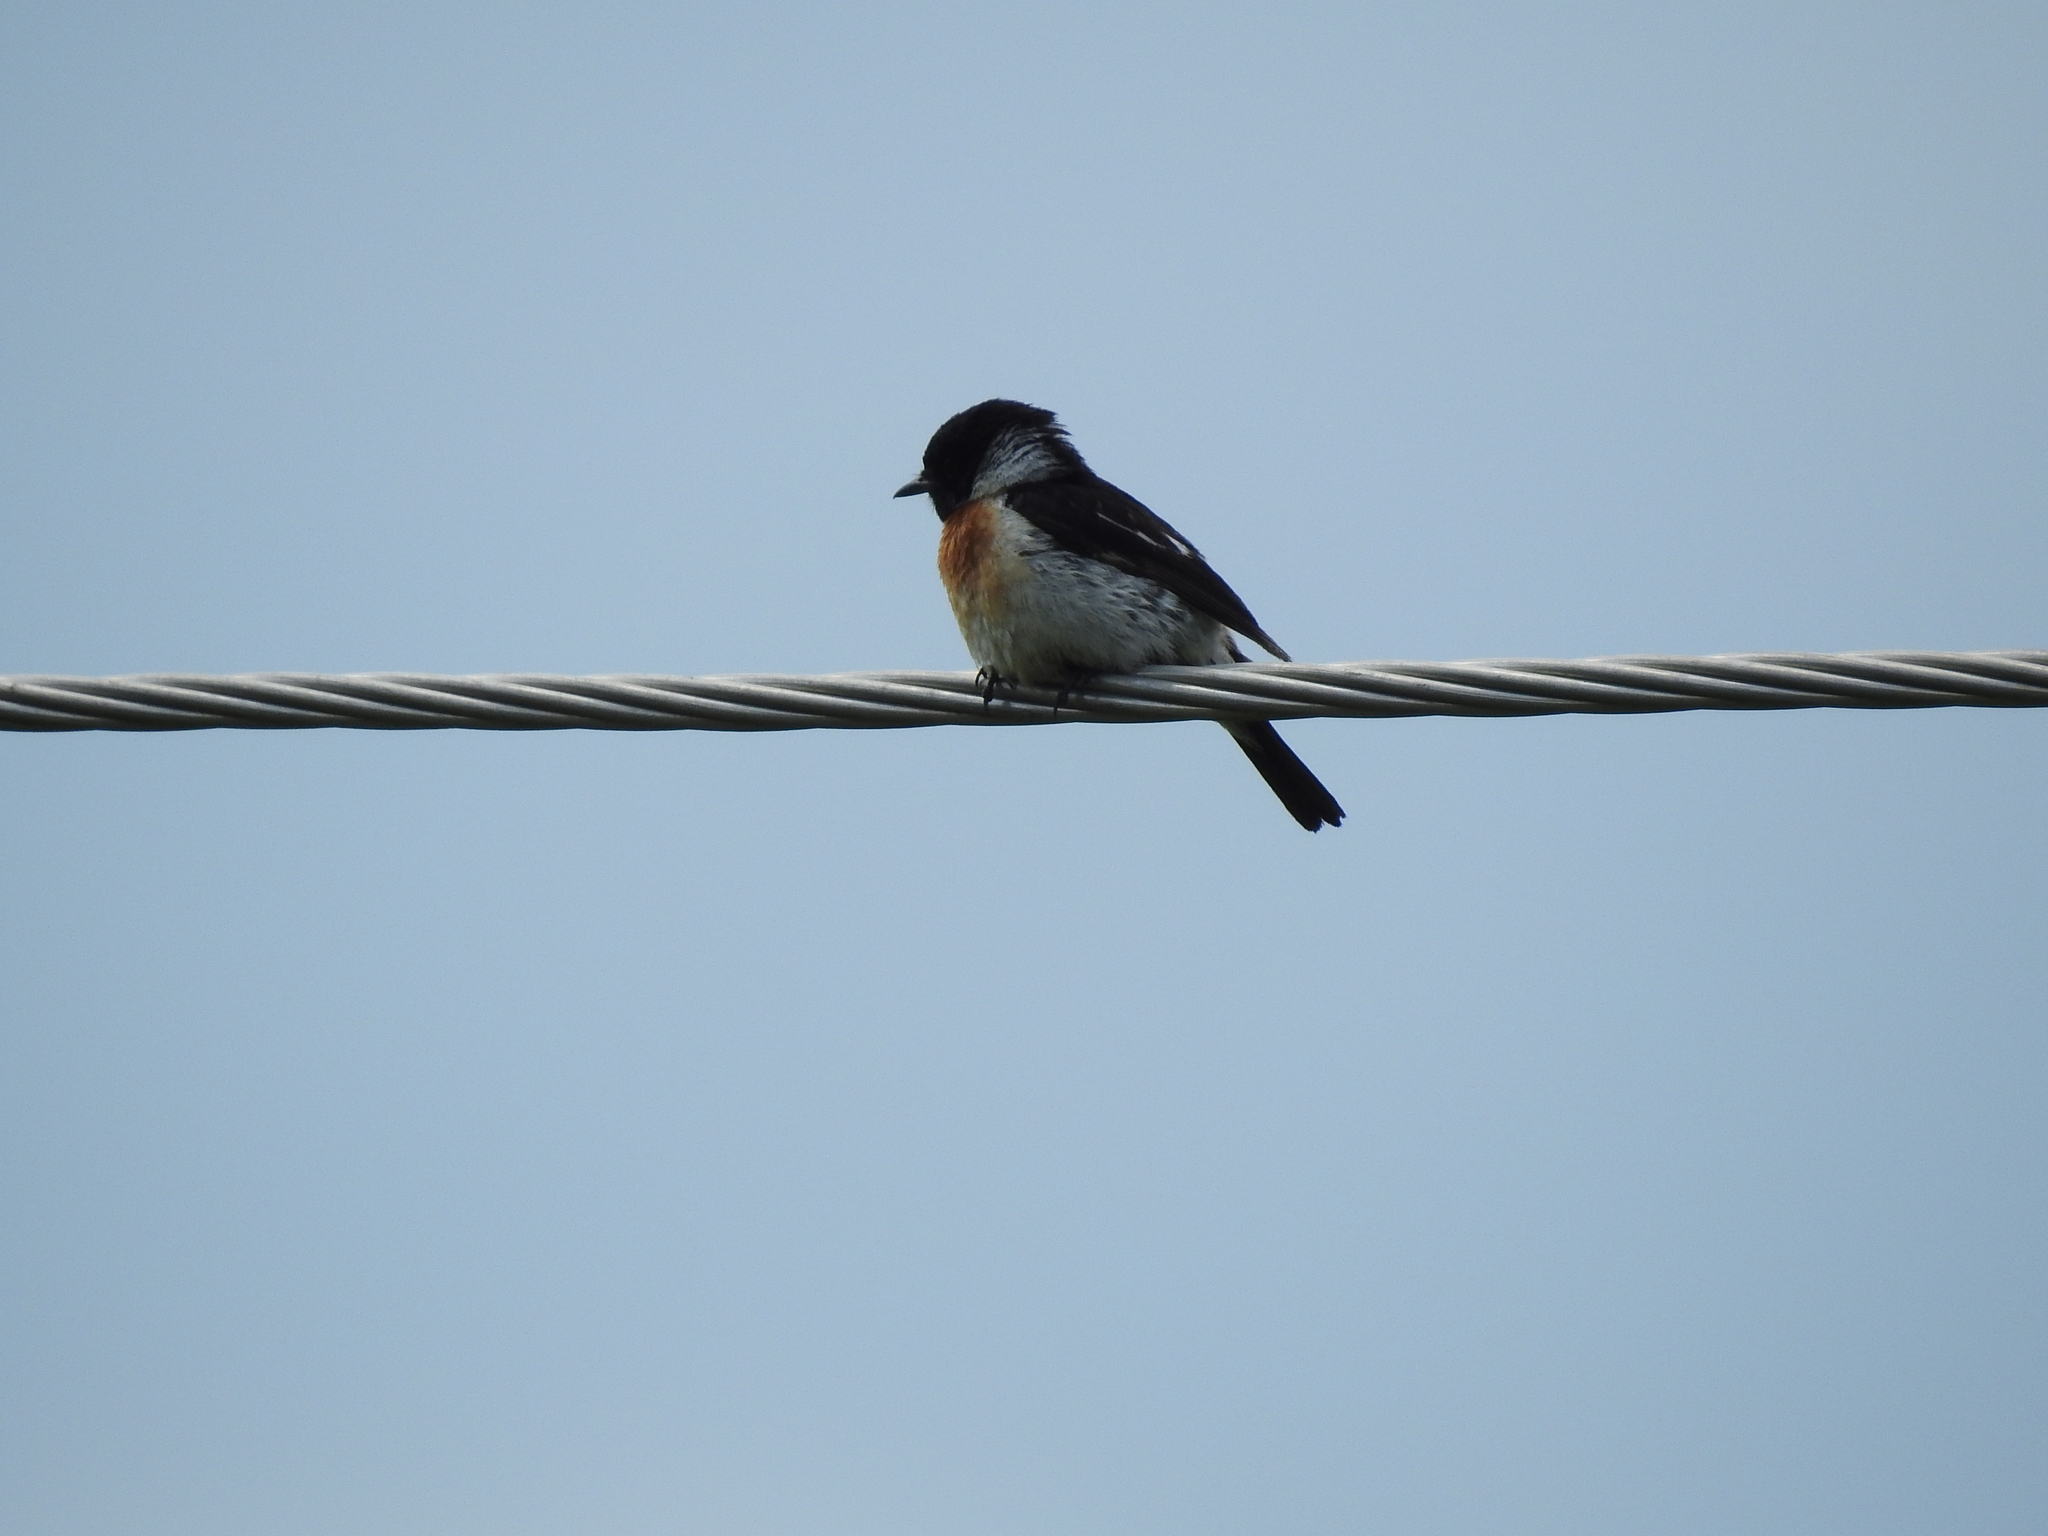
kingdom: Animalia
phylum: Chordata
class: Aves
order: Passeriformes
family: Muscicapidae
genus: Saxicola
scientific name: Saxicola maurus
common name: Siberian stonechat
